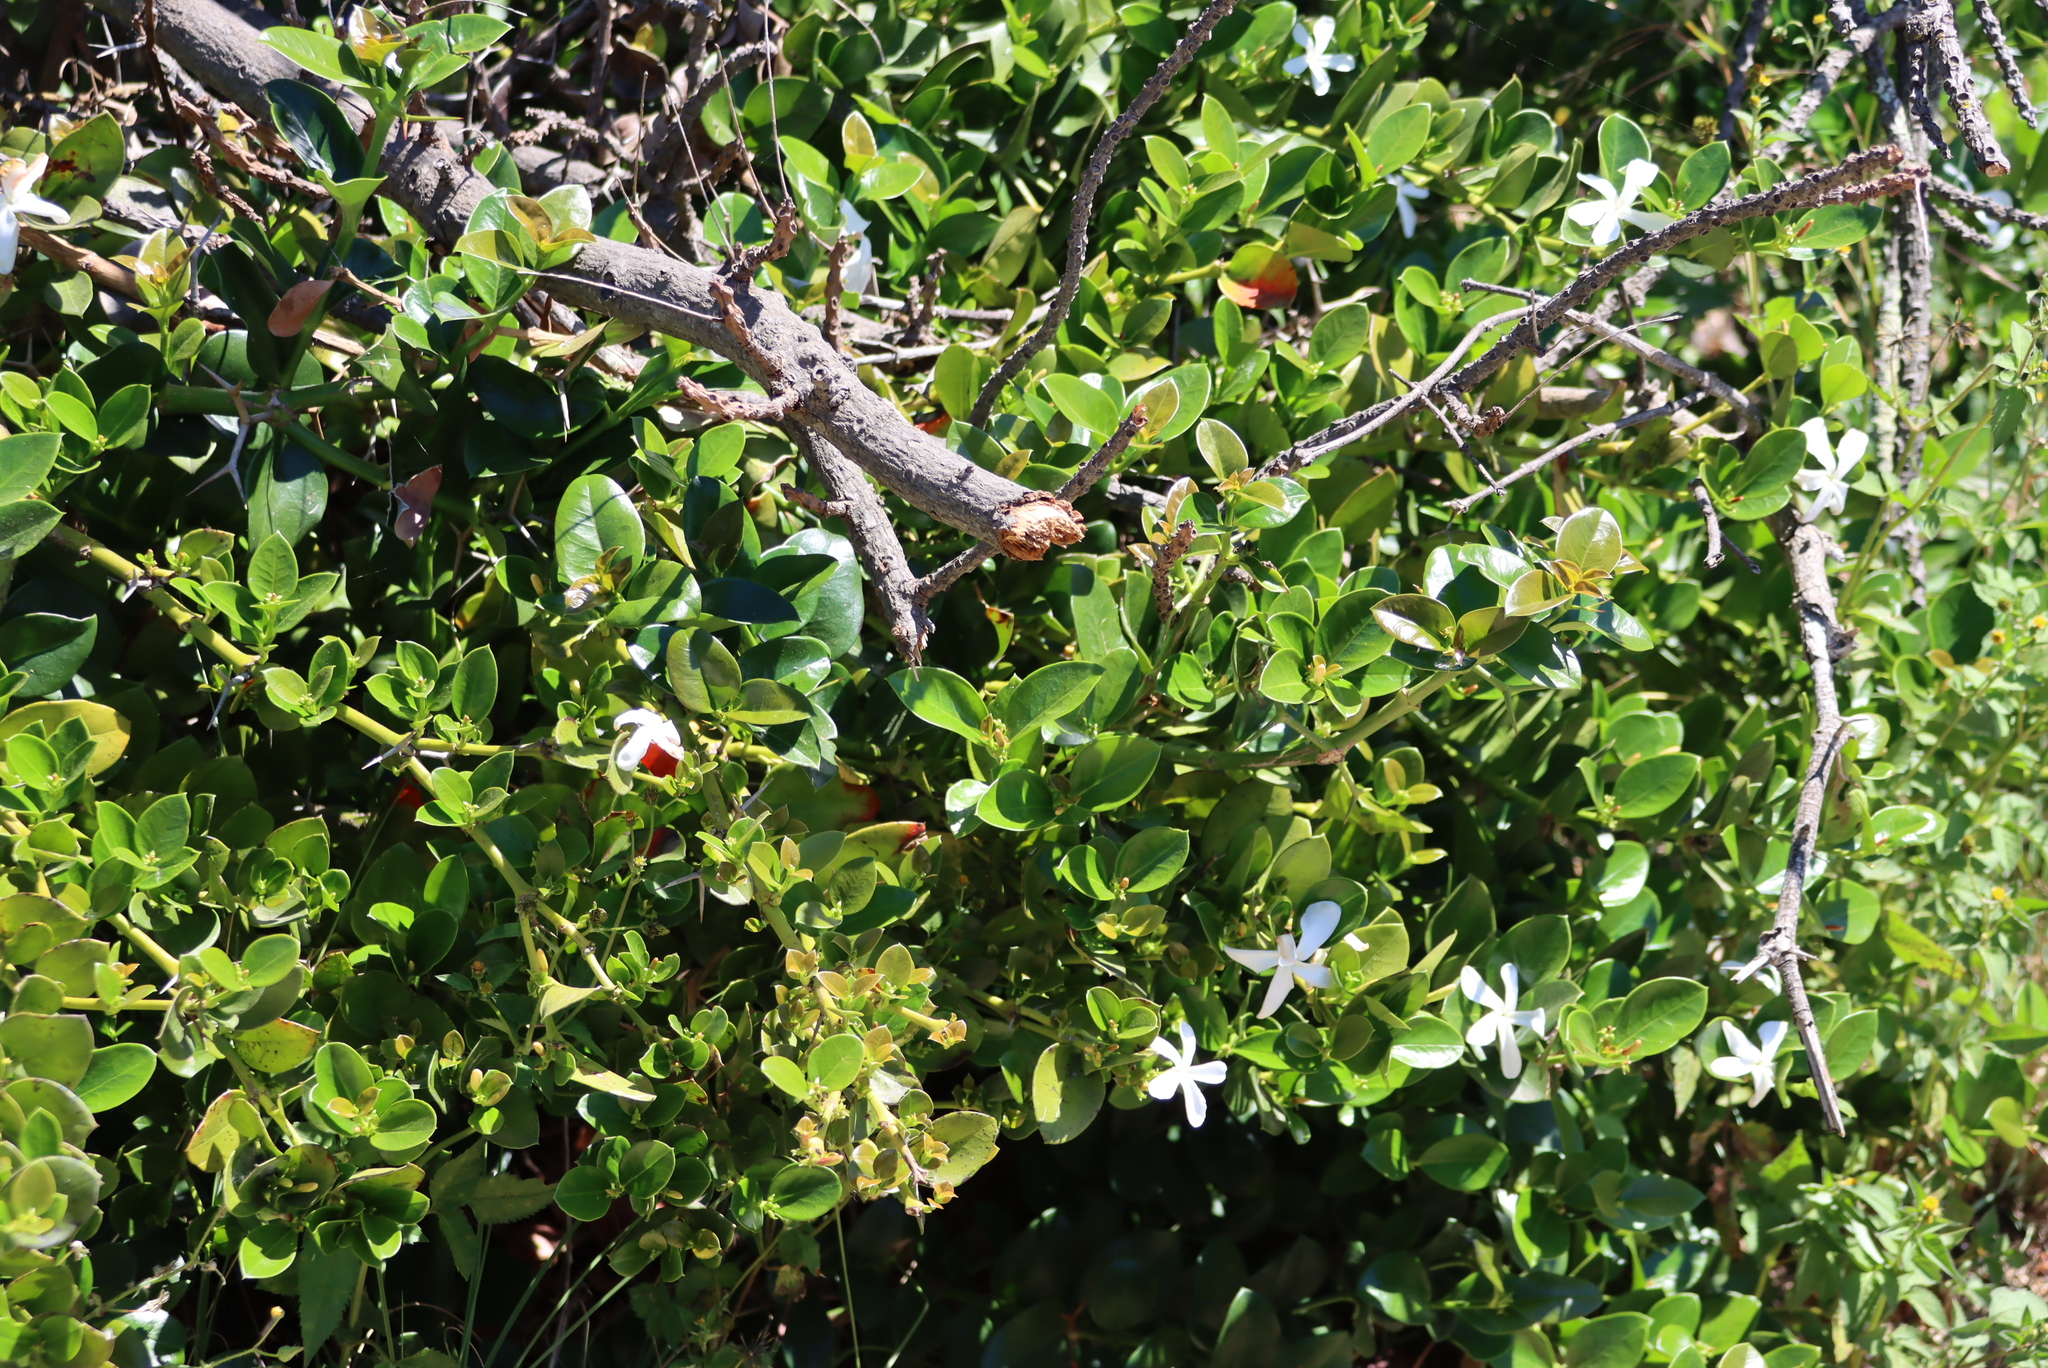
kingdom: Plantae
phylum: Tracheophyta
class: Magnoliopsida
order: Gentianales
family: Apocynaceae
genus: Carissa
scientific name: Carissa macrocarpa
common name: Natal plum
